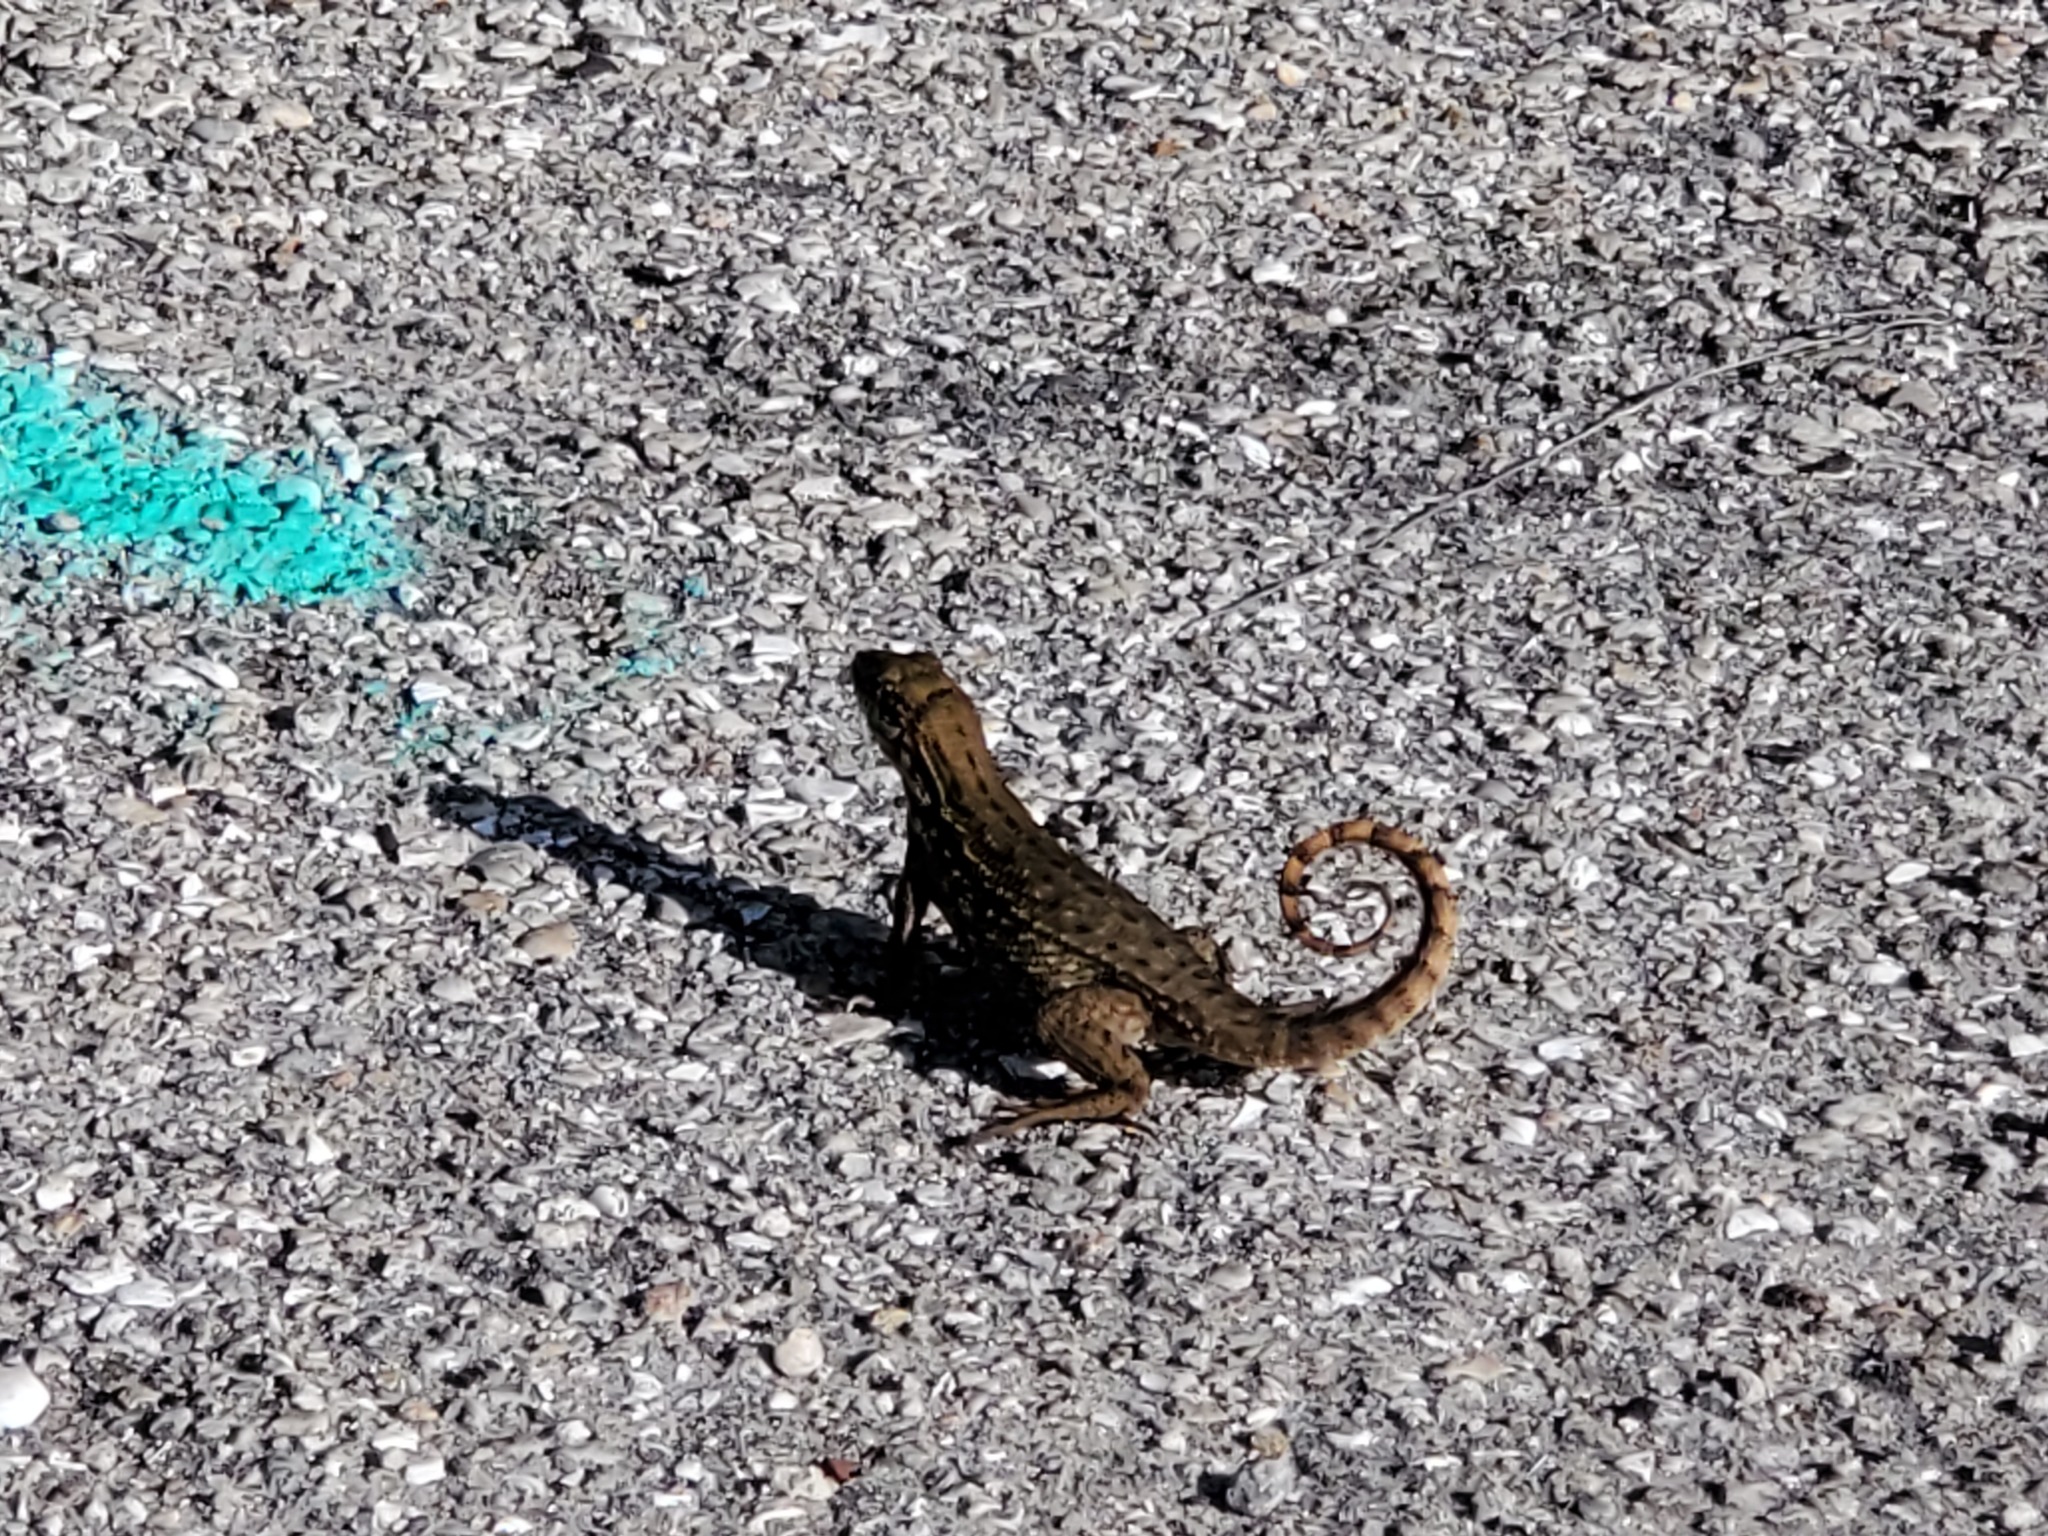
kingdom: Animalia
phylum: Chordata
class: Squamata
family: Leiocephalidae
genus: Leiocephalus
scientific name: Leiocephalus carinatus
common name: Northern curly-tailed lizard
